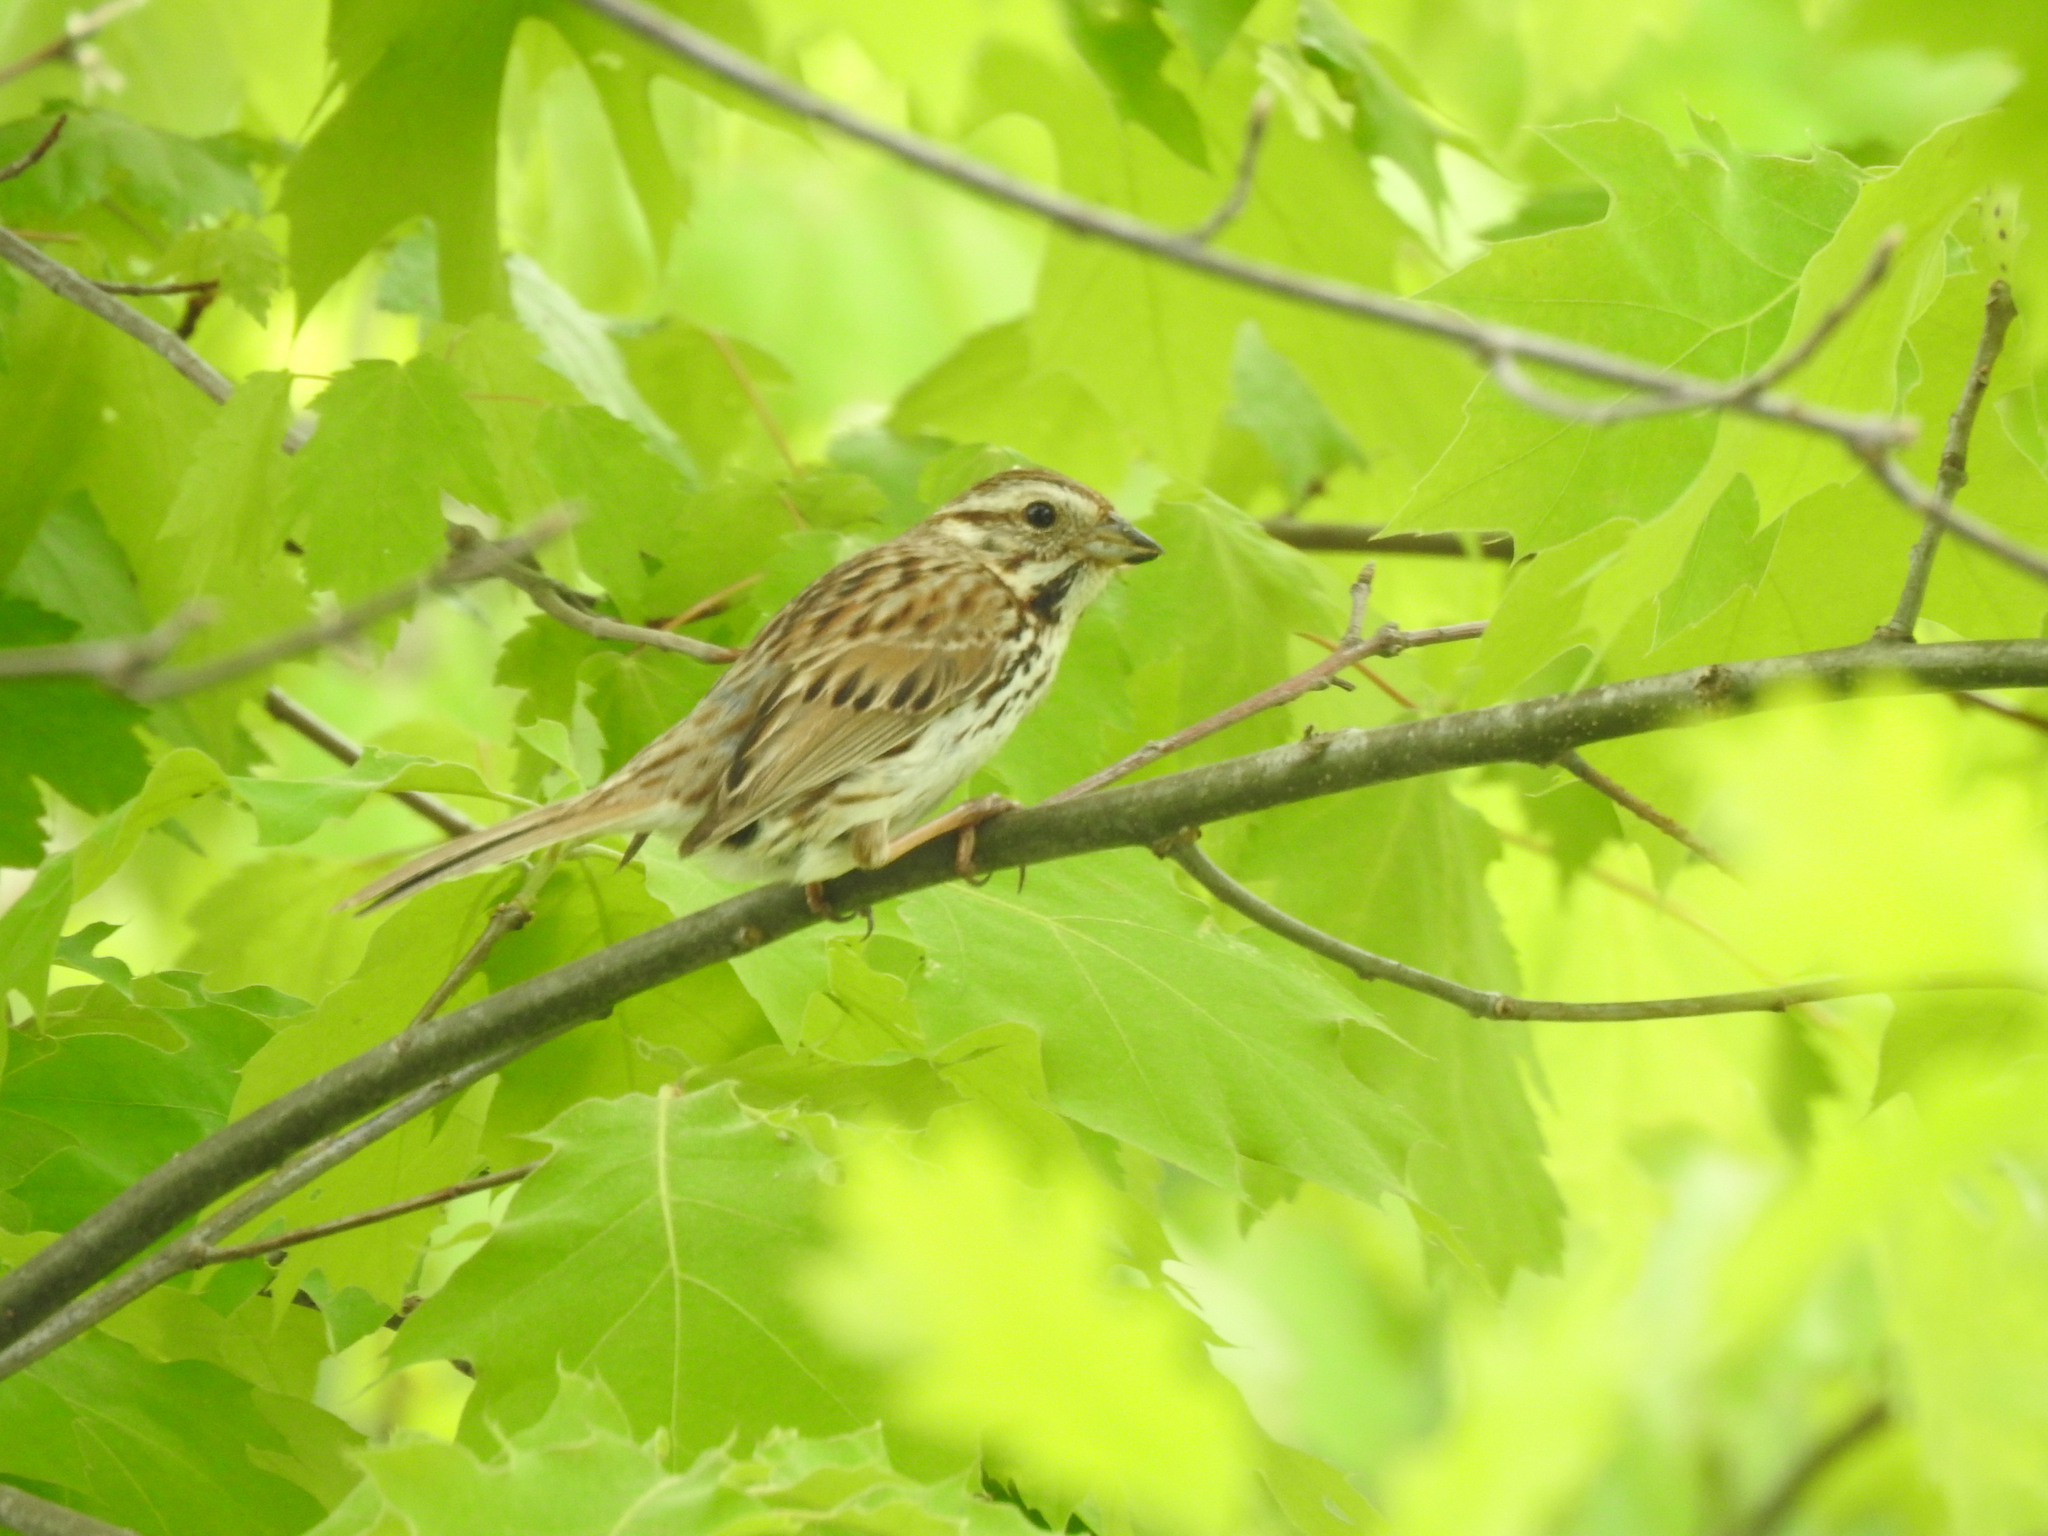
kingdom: Animalia
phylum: Chordata
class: Aves
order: Passeriformes
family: Passerellidae
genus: Melospiza
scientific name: Melospiza melodia
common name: Song sparrow
